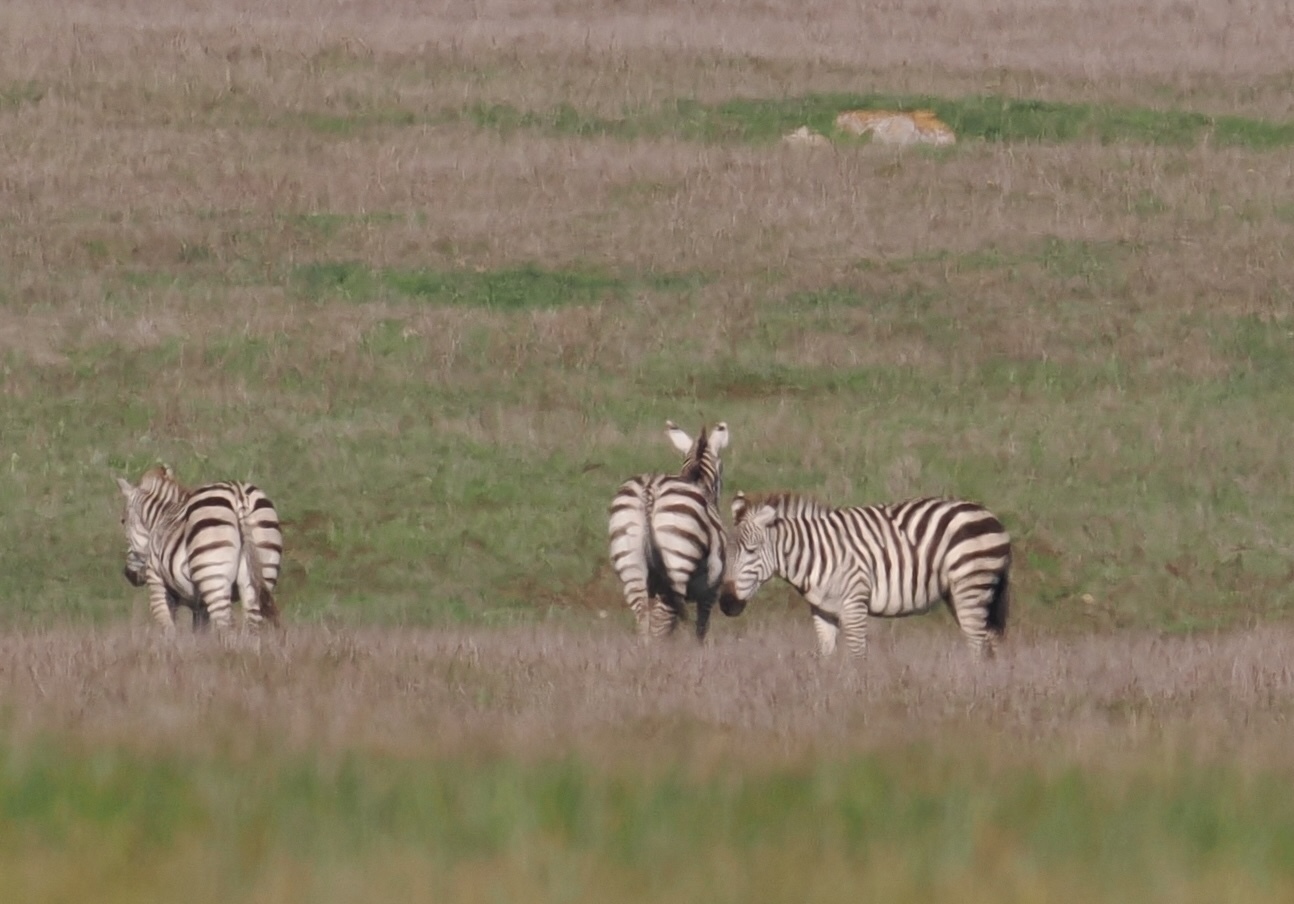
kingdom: Animalia
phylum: Chordata
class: Mammalia
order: Perissodactyla
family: Equidae
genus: Equus
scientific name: Equus quagga
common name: Plains zebra
